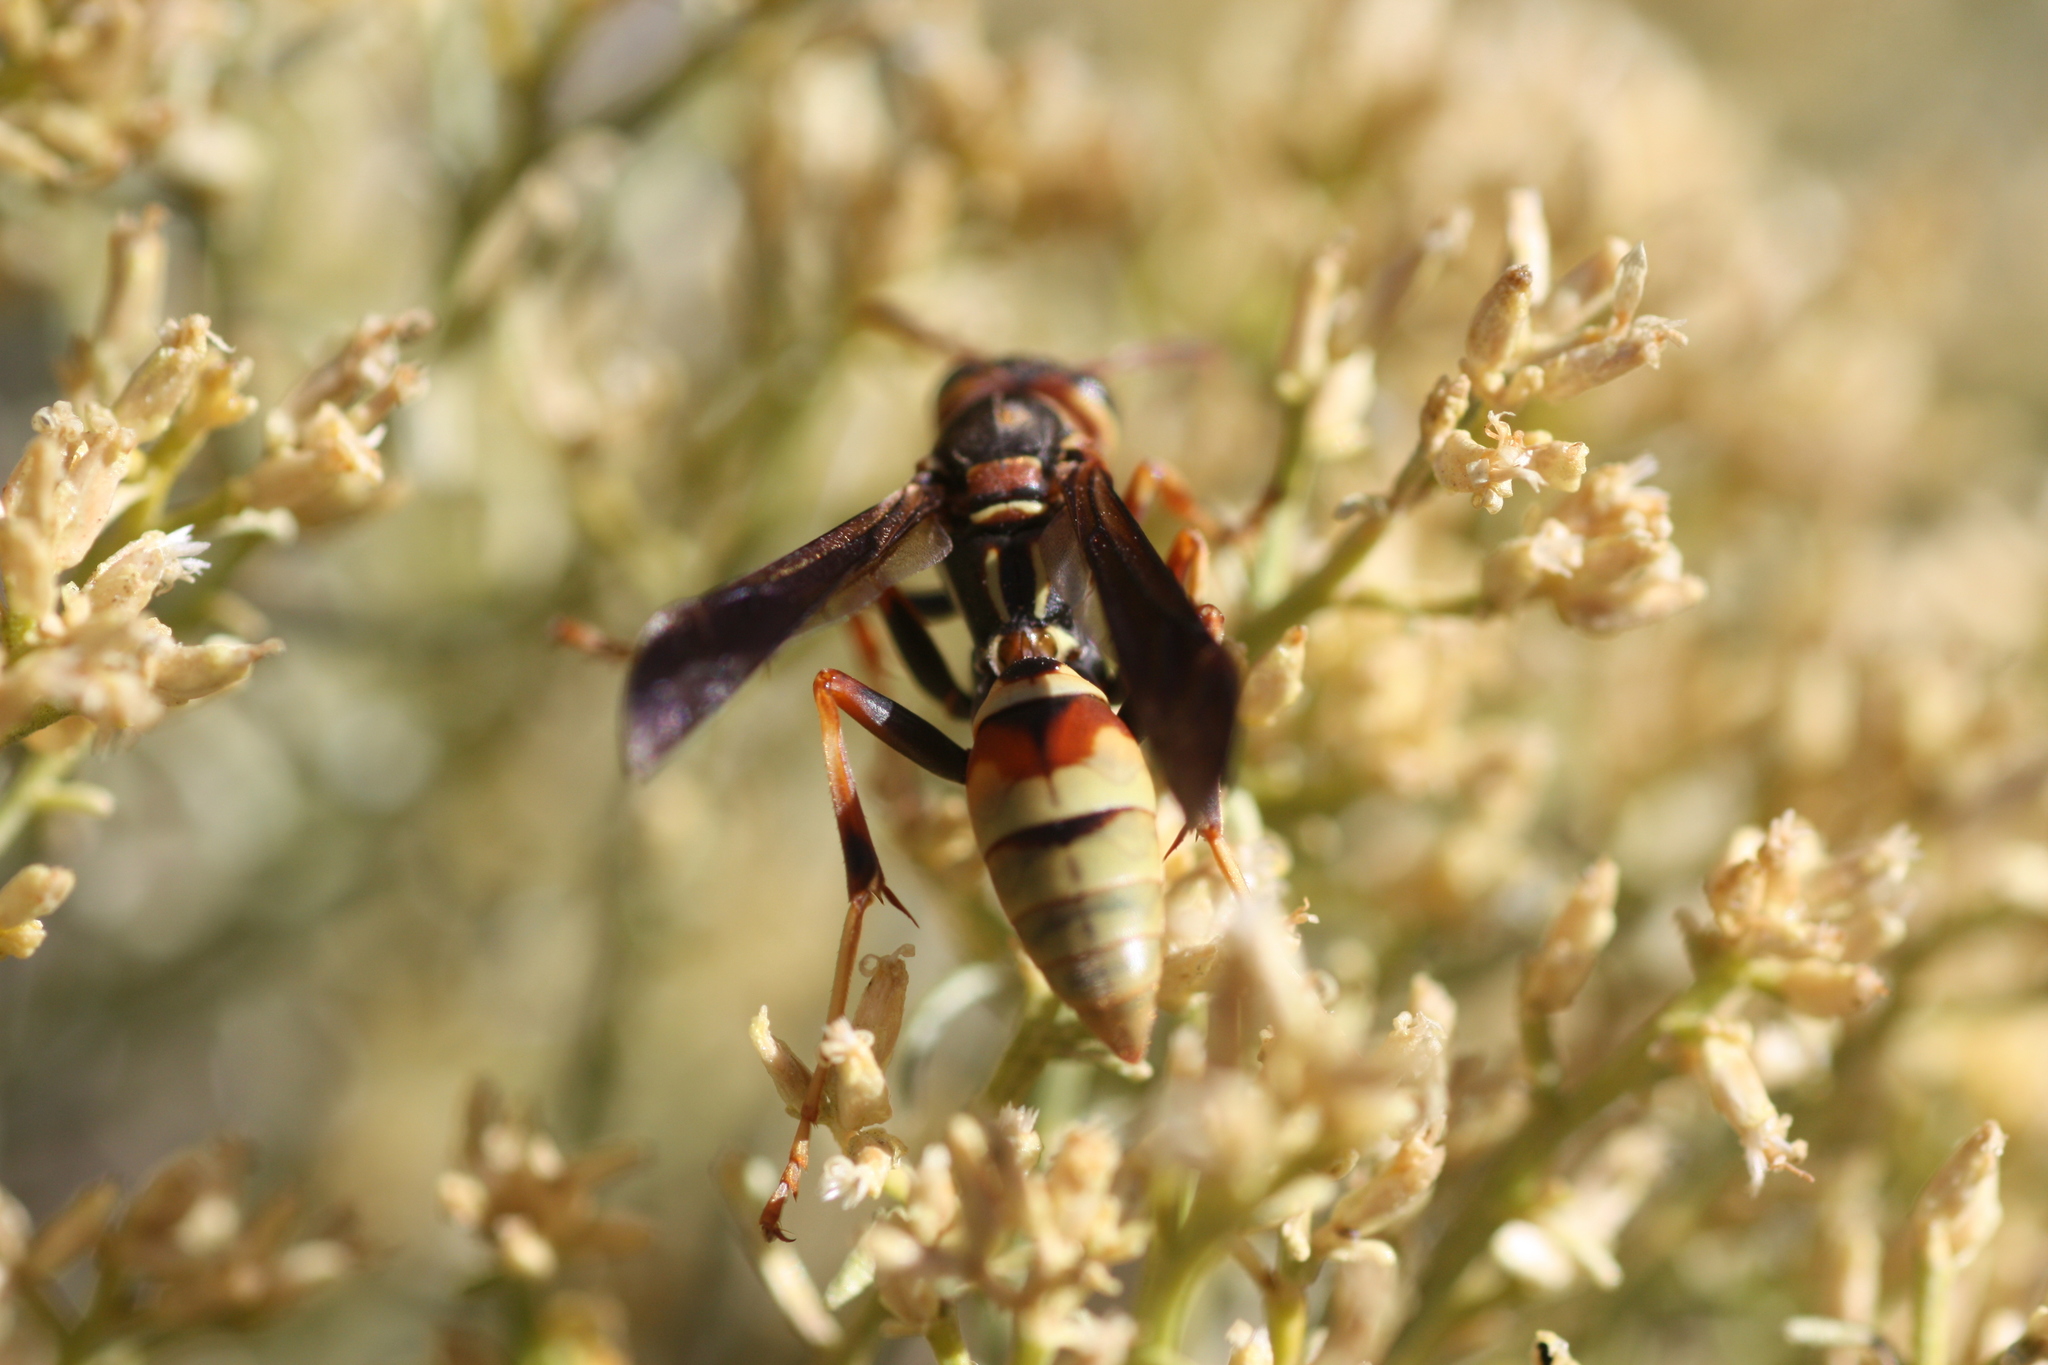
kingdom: Animalia
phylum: Arthropoda
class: Insecta
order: Hymenoptera
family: Eumenidae
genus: Polistes
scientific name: Polistes dorsalis
